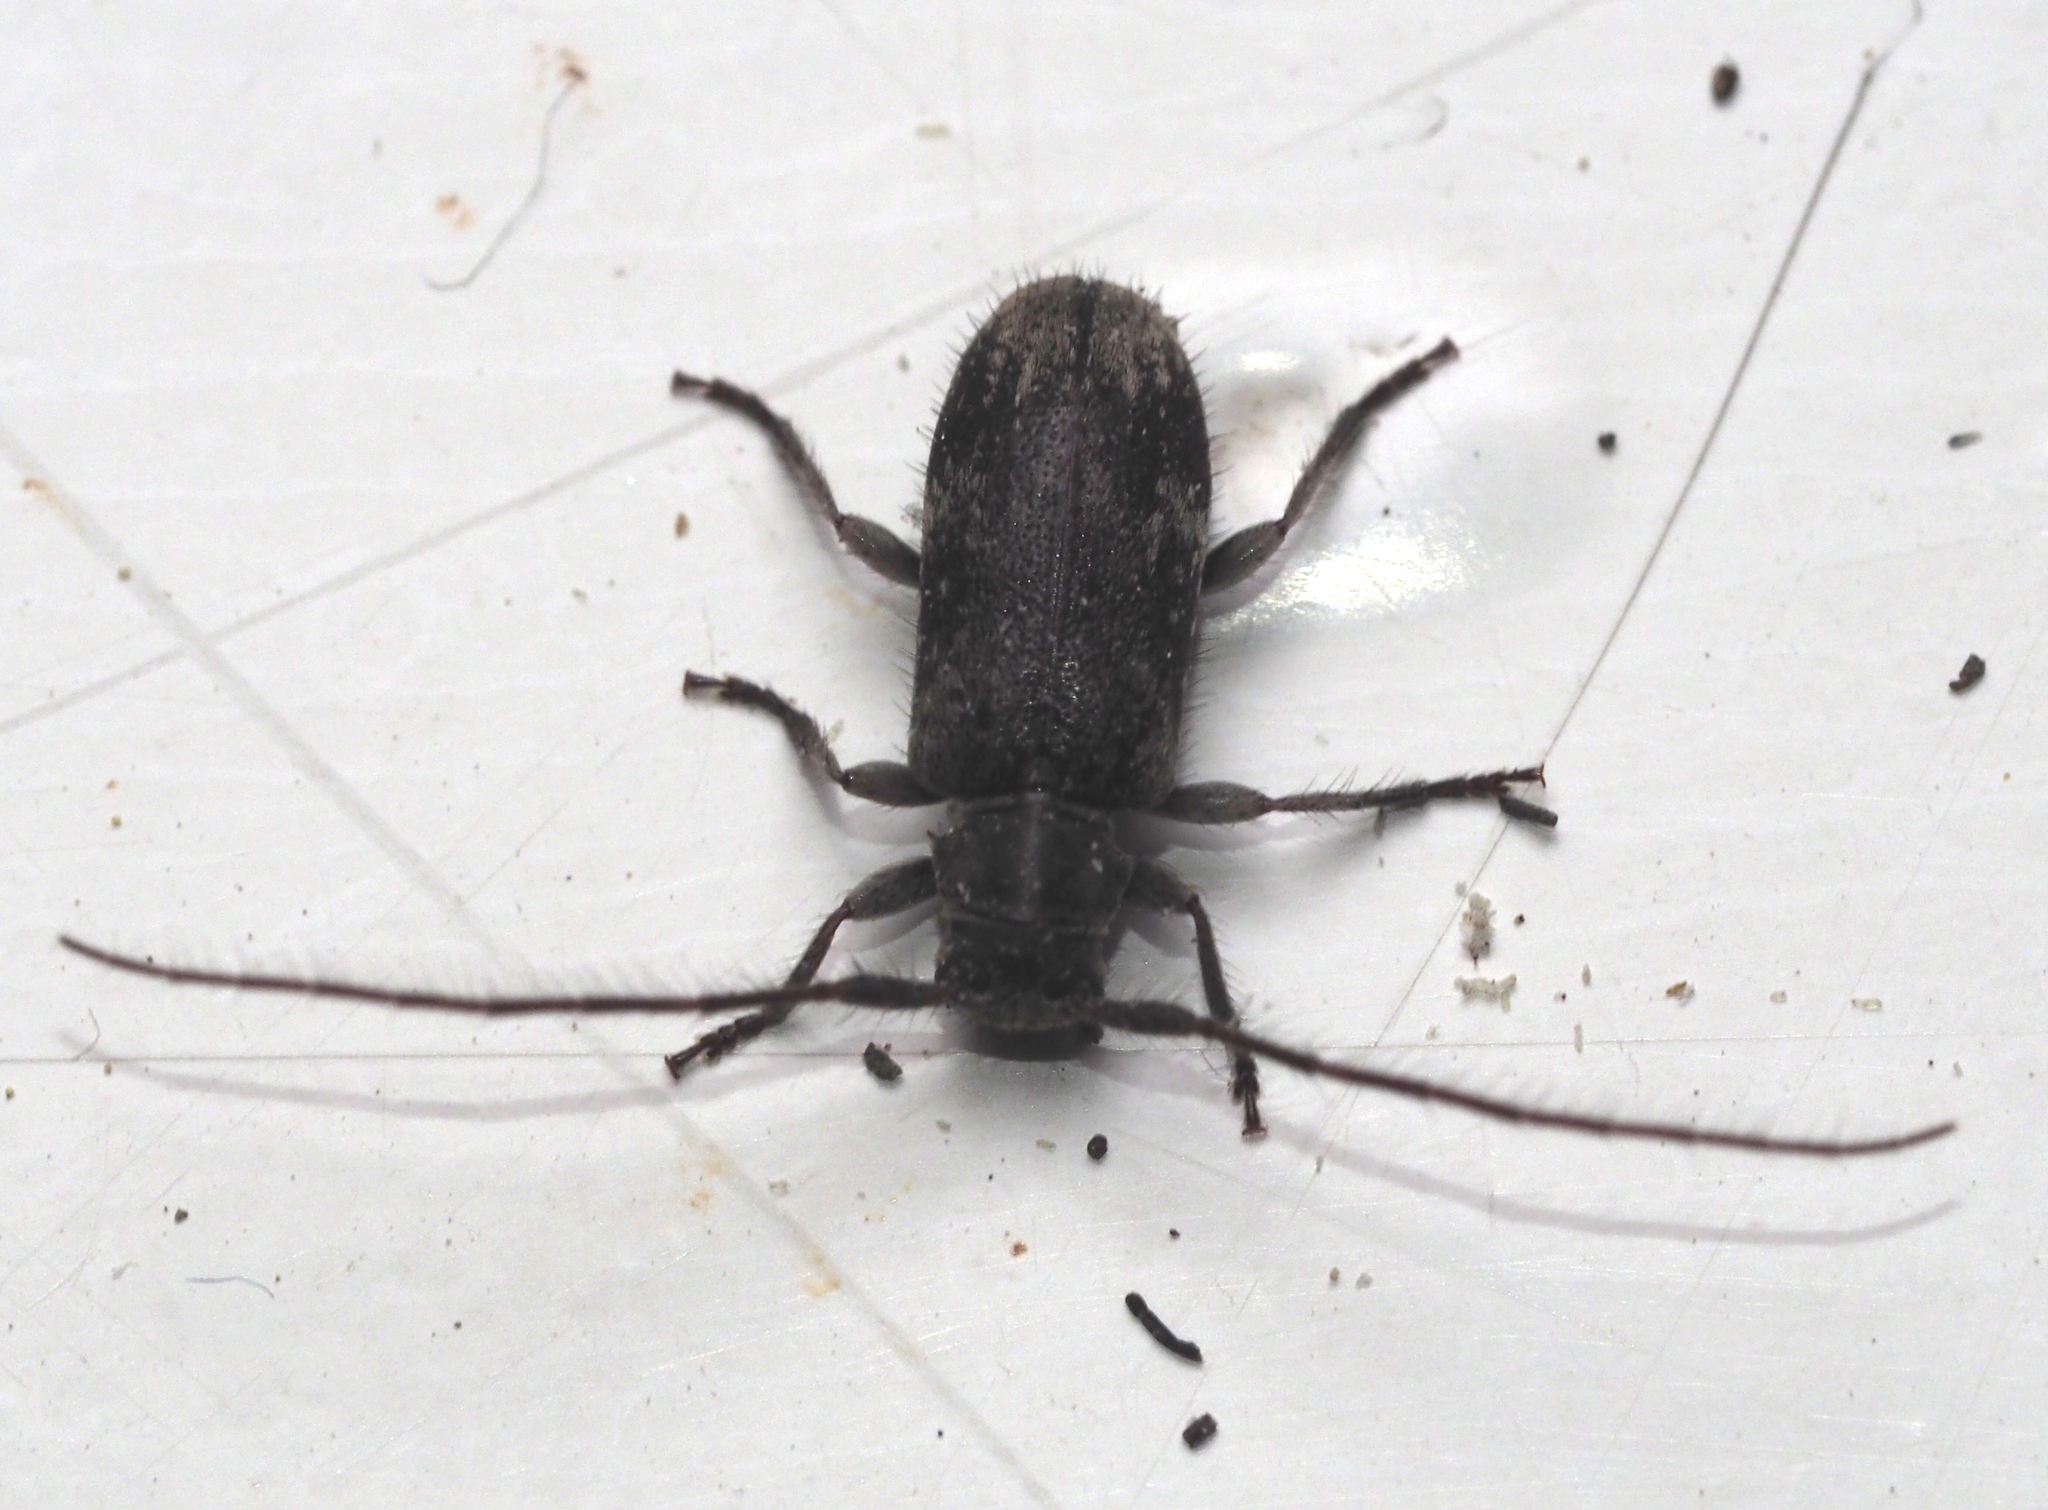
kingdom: Animalia
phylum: Arthropoda
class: Insecta
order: Coleoptera
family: Cerambycidae
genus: Exocentrus
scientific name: Exocentrus adspersus
